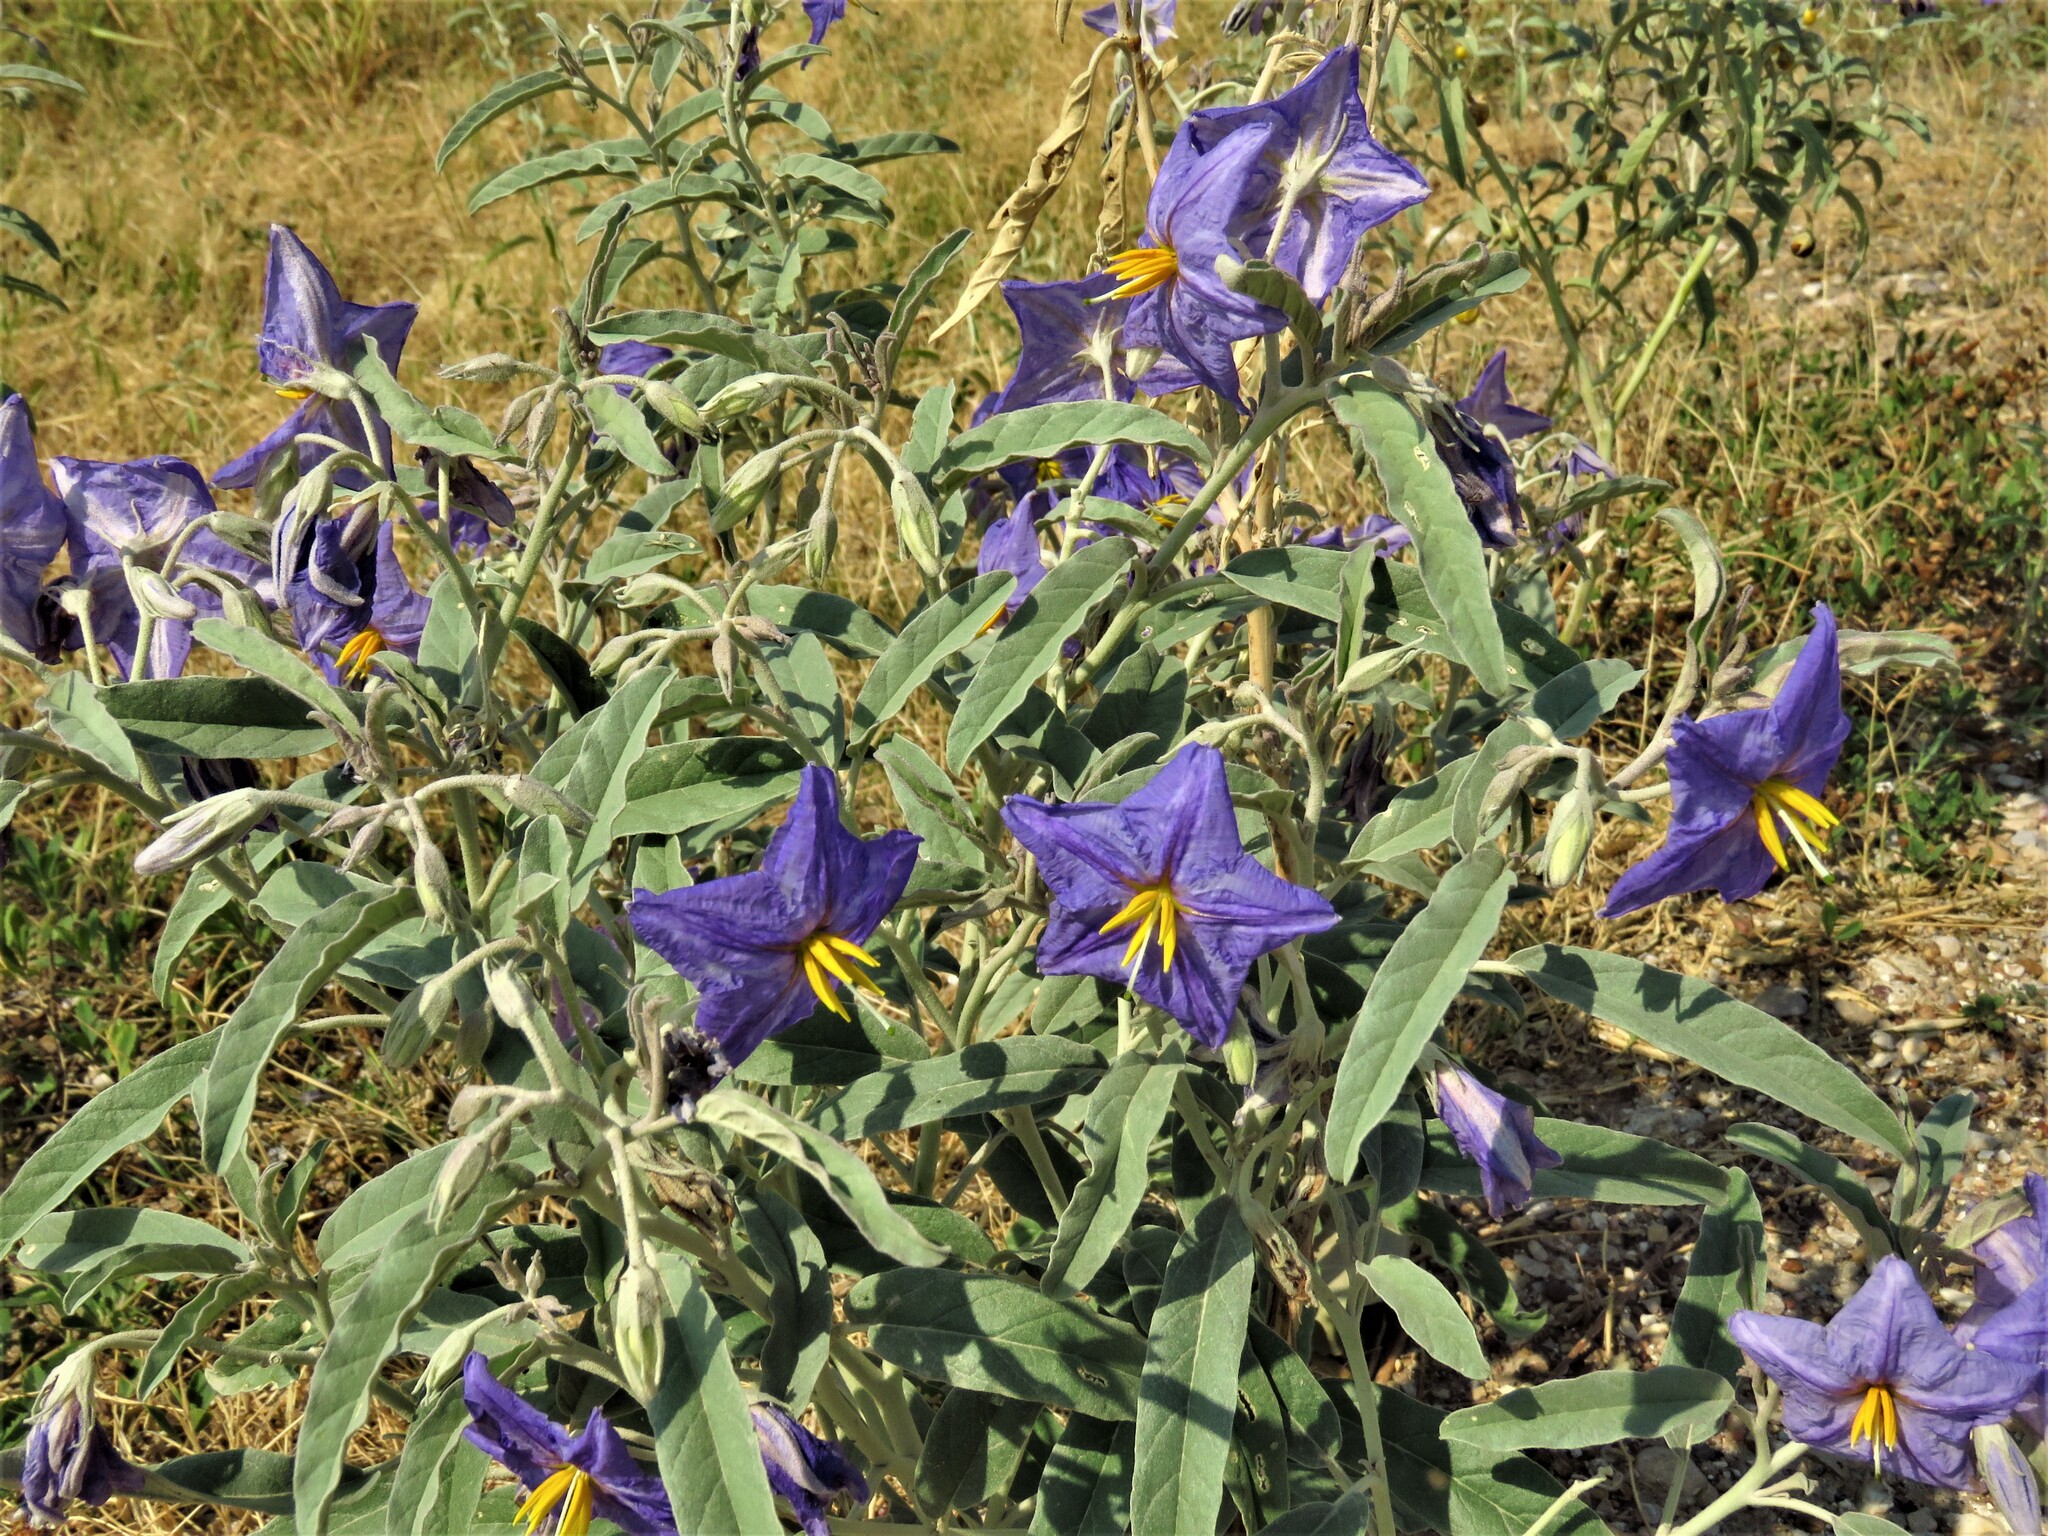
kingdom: Plantae
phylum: Tracheophyta
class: Magnoliopsida
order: Solanales
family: Solanaceae
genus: Solanum
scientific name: Solanum elaeagnifolium
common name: Silverleaf nightshade
